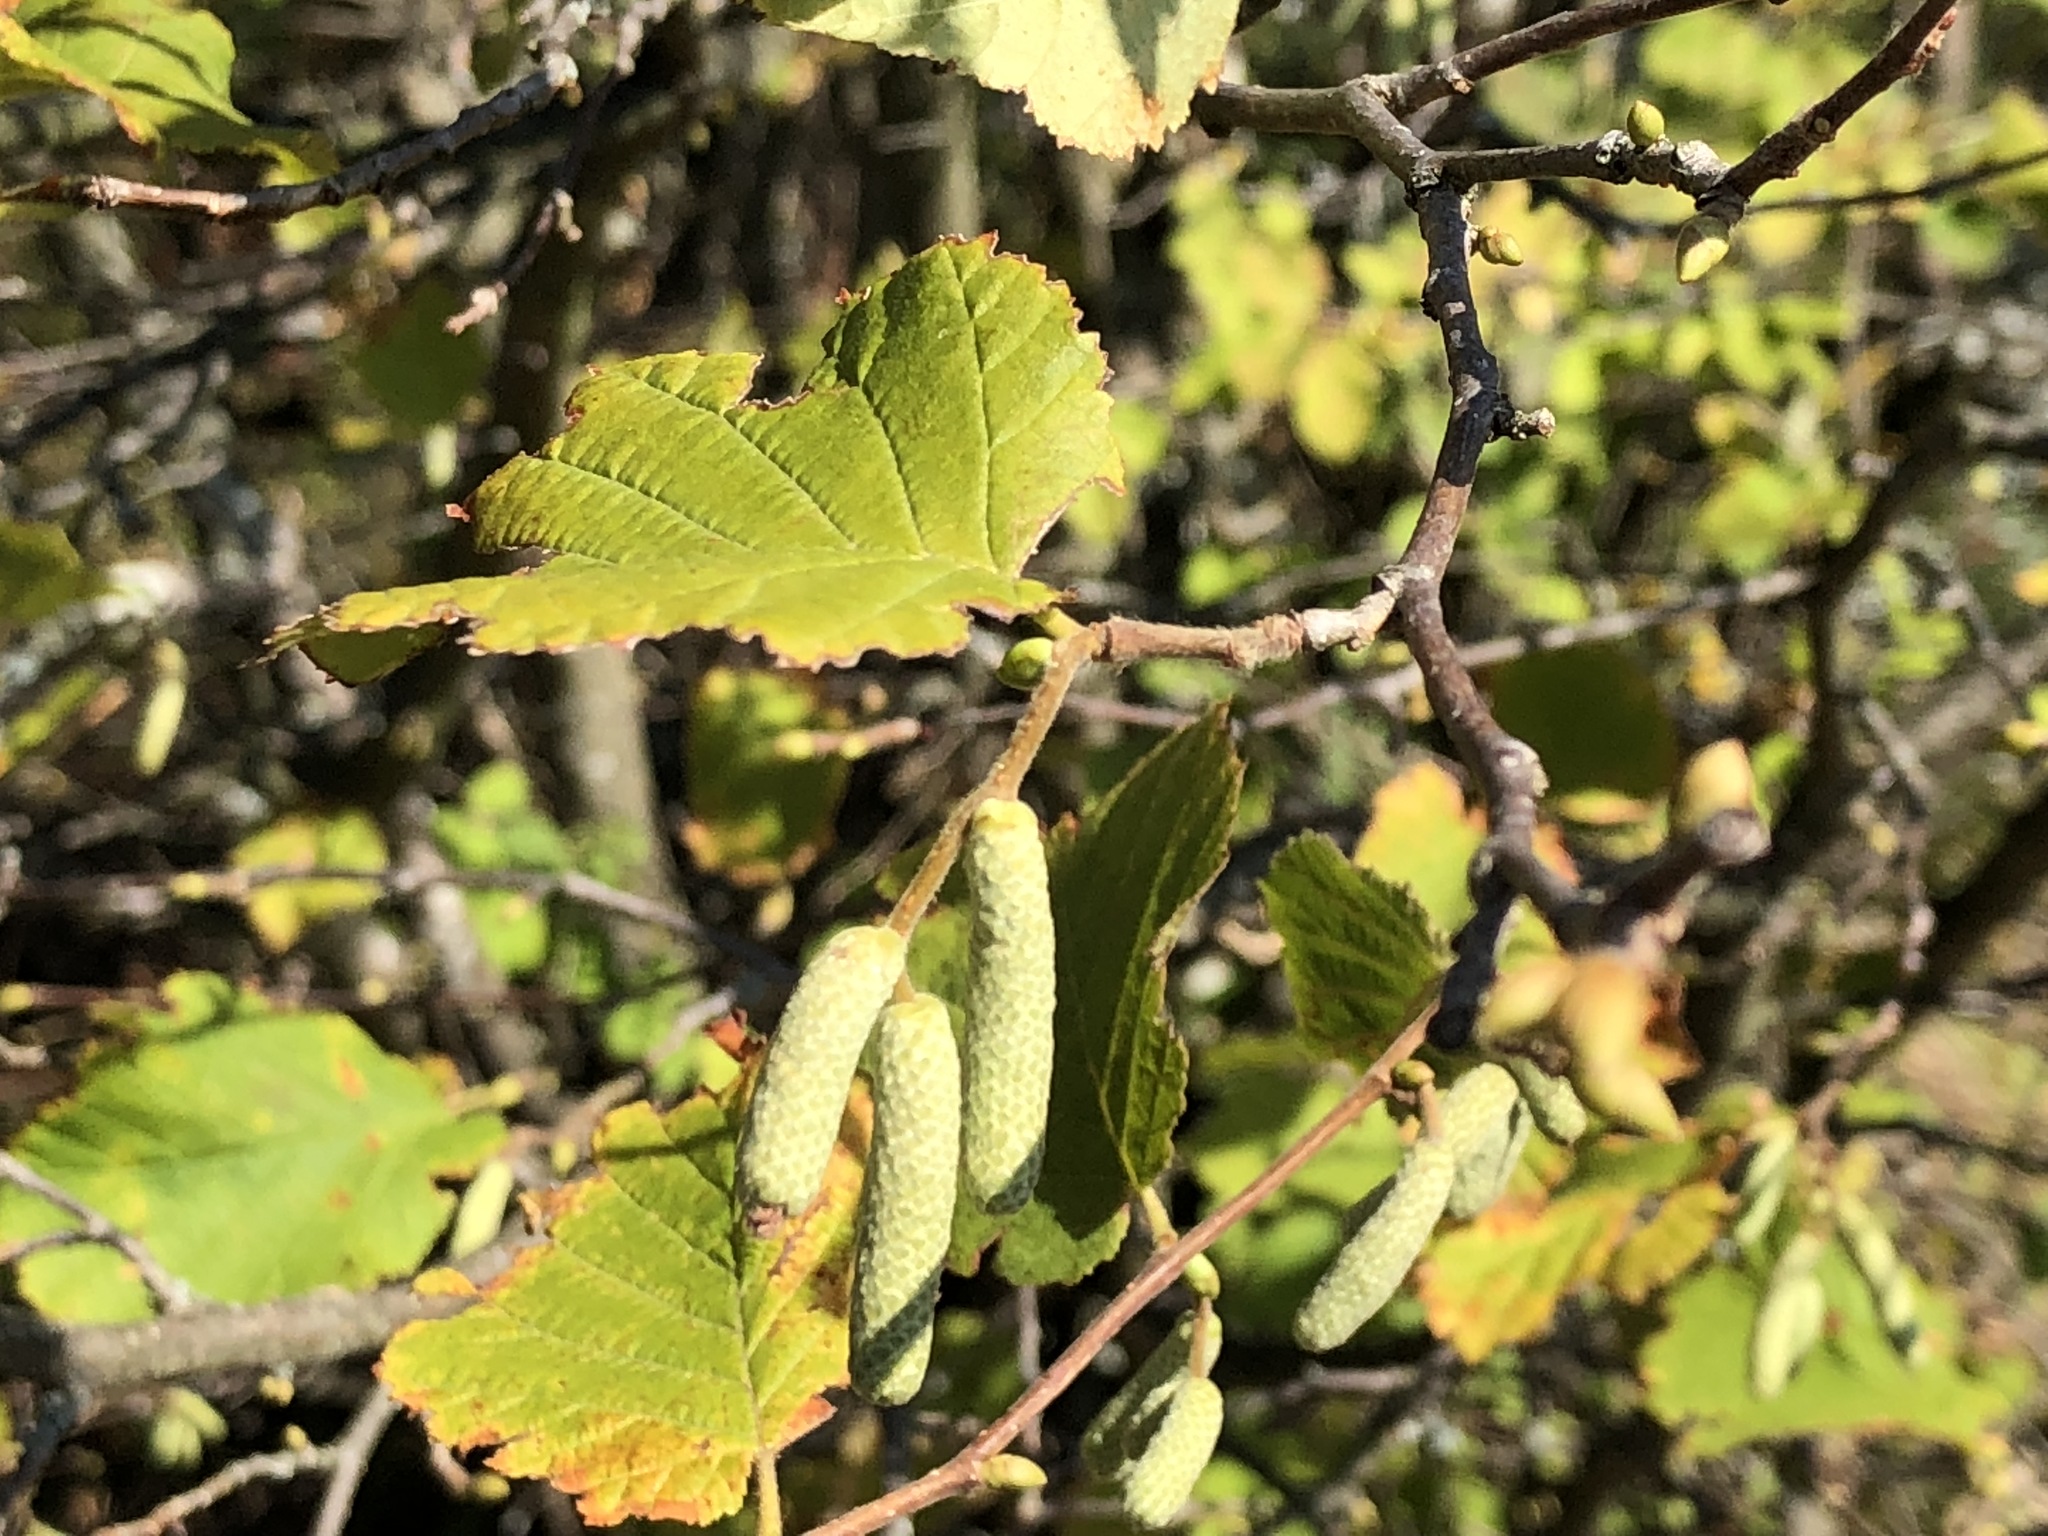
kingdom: Plantae
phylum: Tracheophyta
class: Magnoliopsida
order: Fagales
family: Betulaceae
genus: Corylus
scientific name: Corylus avellana
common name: European hazel
